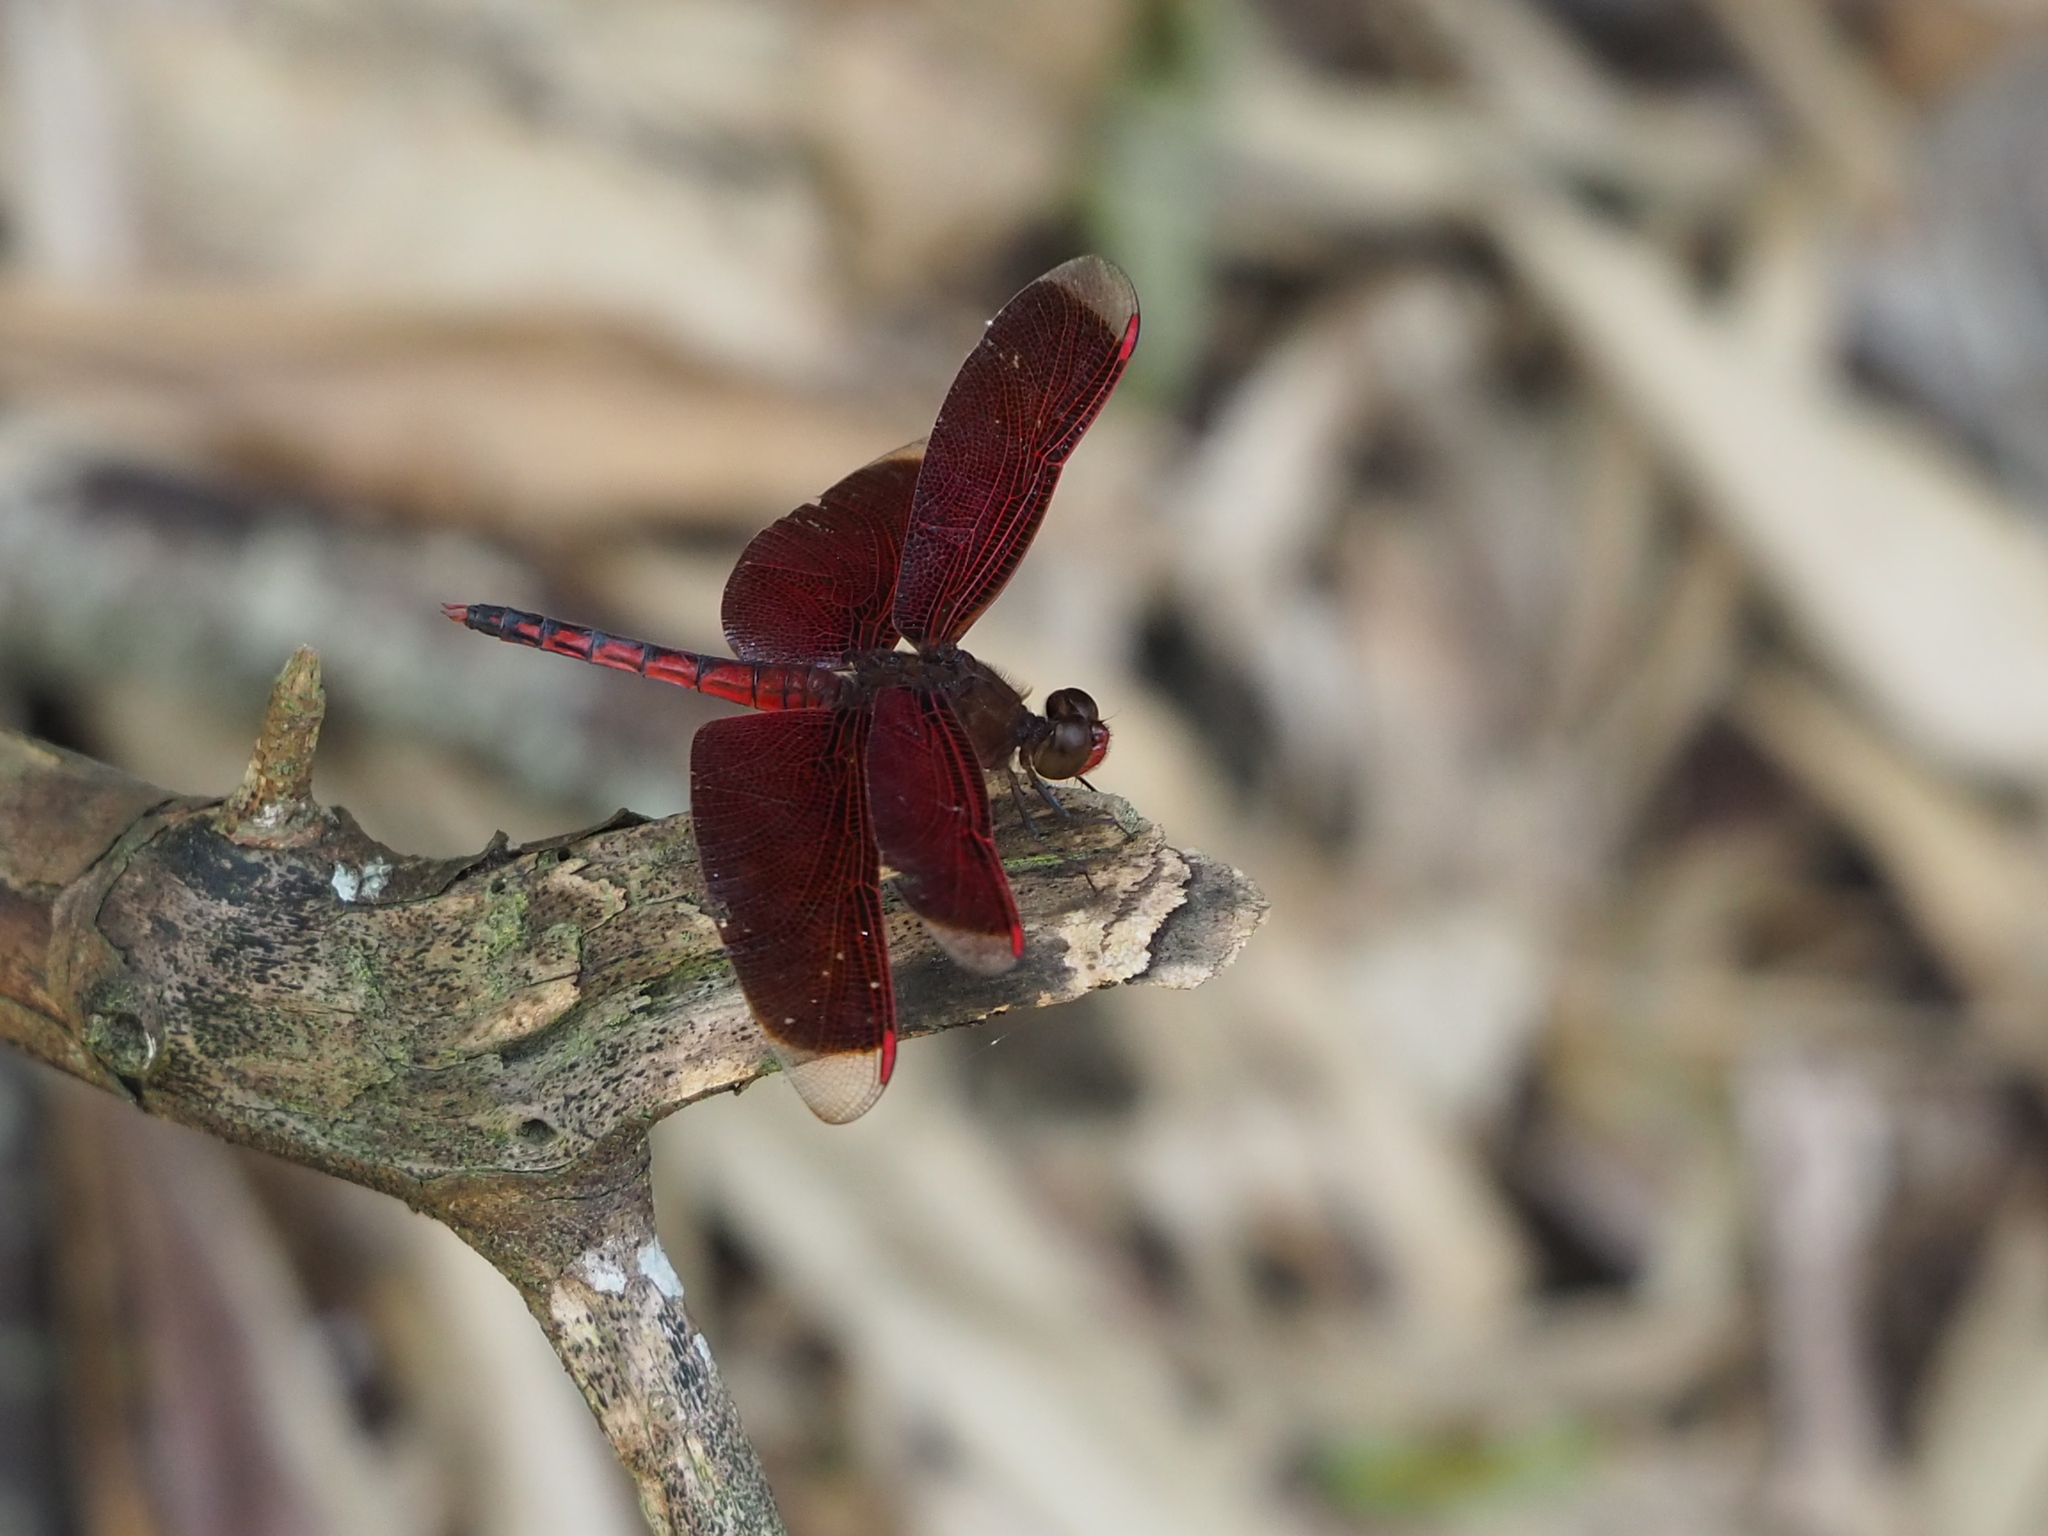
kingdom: Animalia
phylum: Arthropoda
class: Insecta
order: Odonata
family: Libellulidae
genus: Neurothemis
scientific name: Neurothemis taiwanensis
